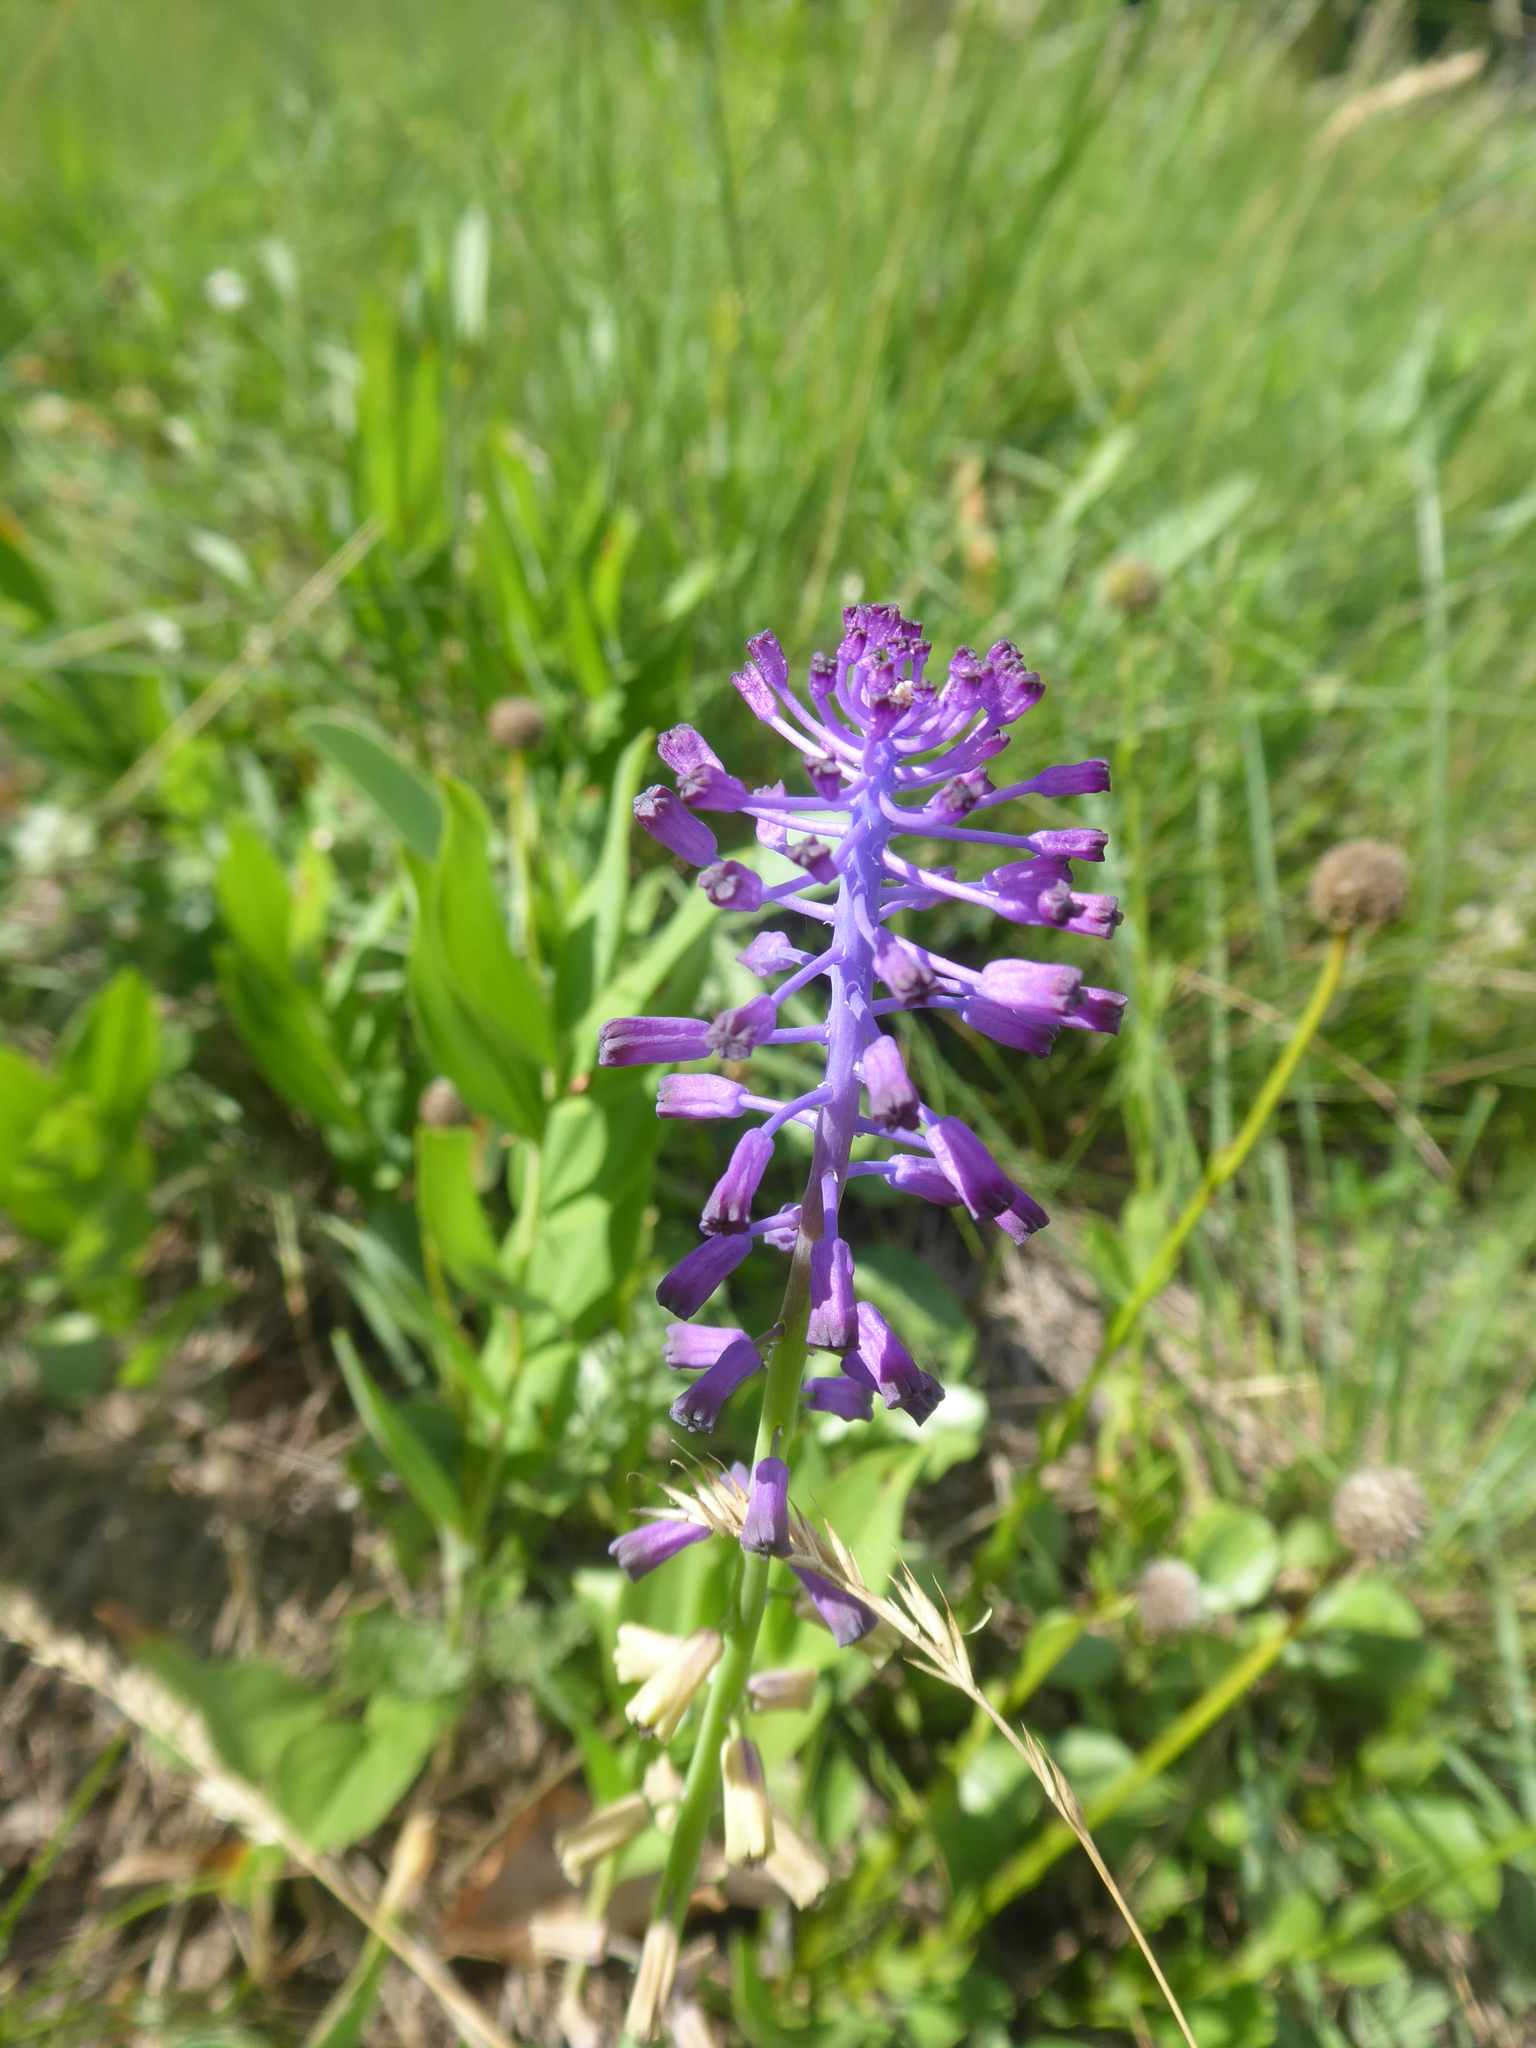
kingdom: Plantae
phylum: Tracheophyta
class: Liliopsida
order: Asparagales
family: Asparagaceae
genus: Muscari
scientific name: Muscari tenuiflorum
